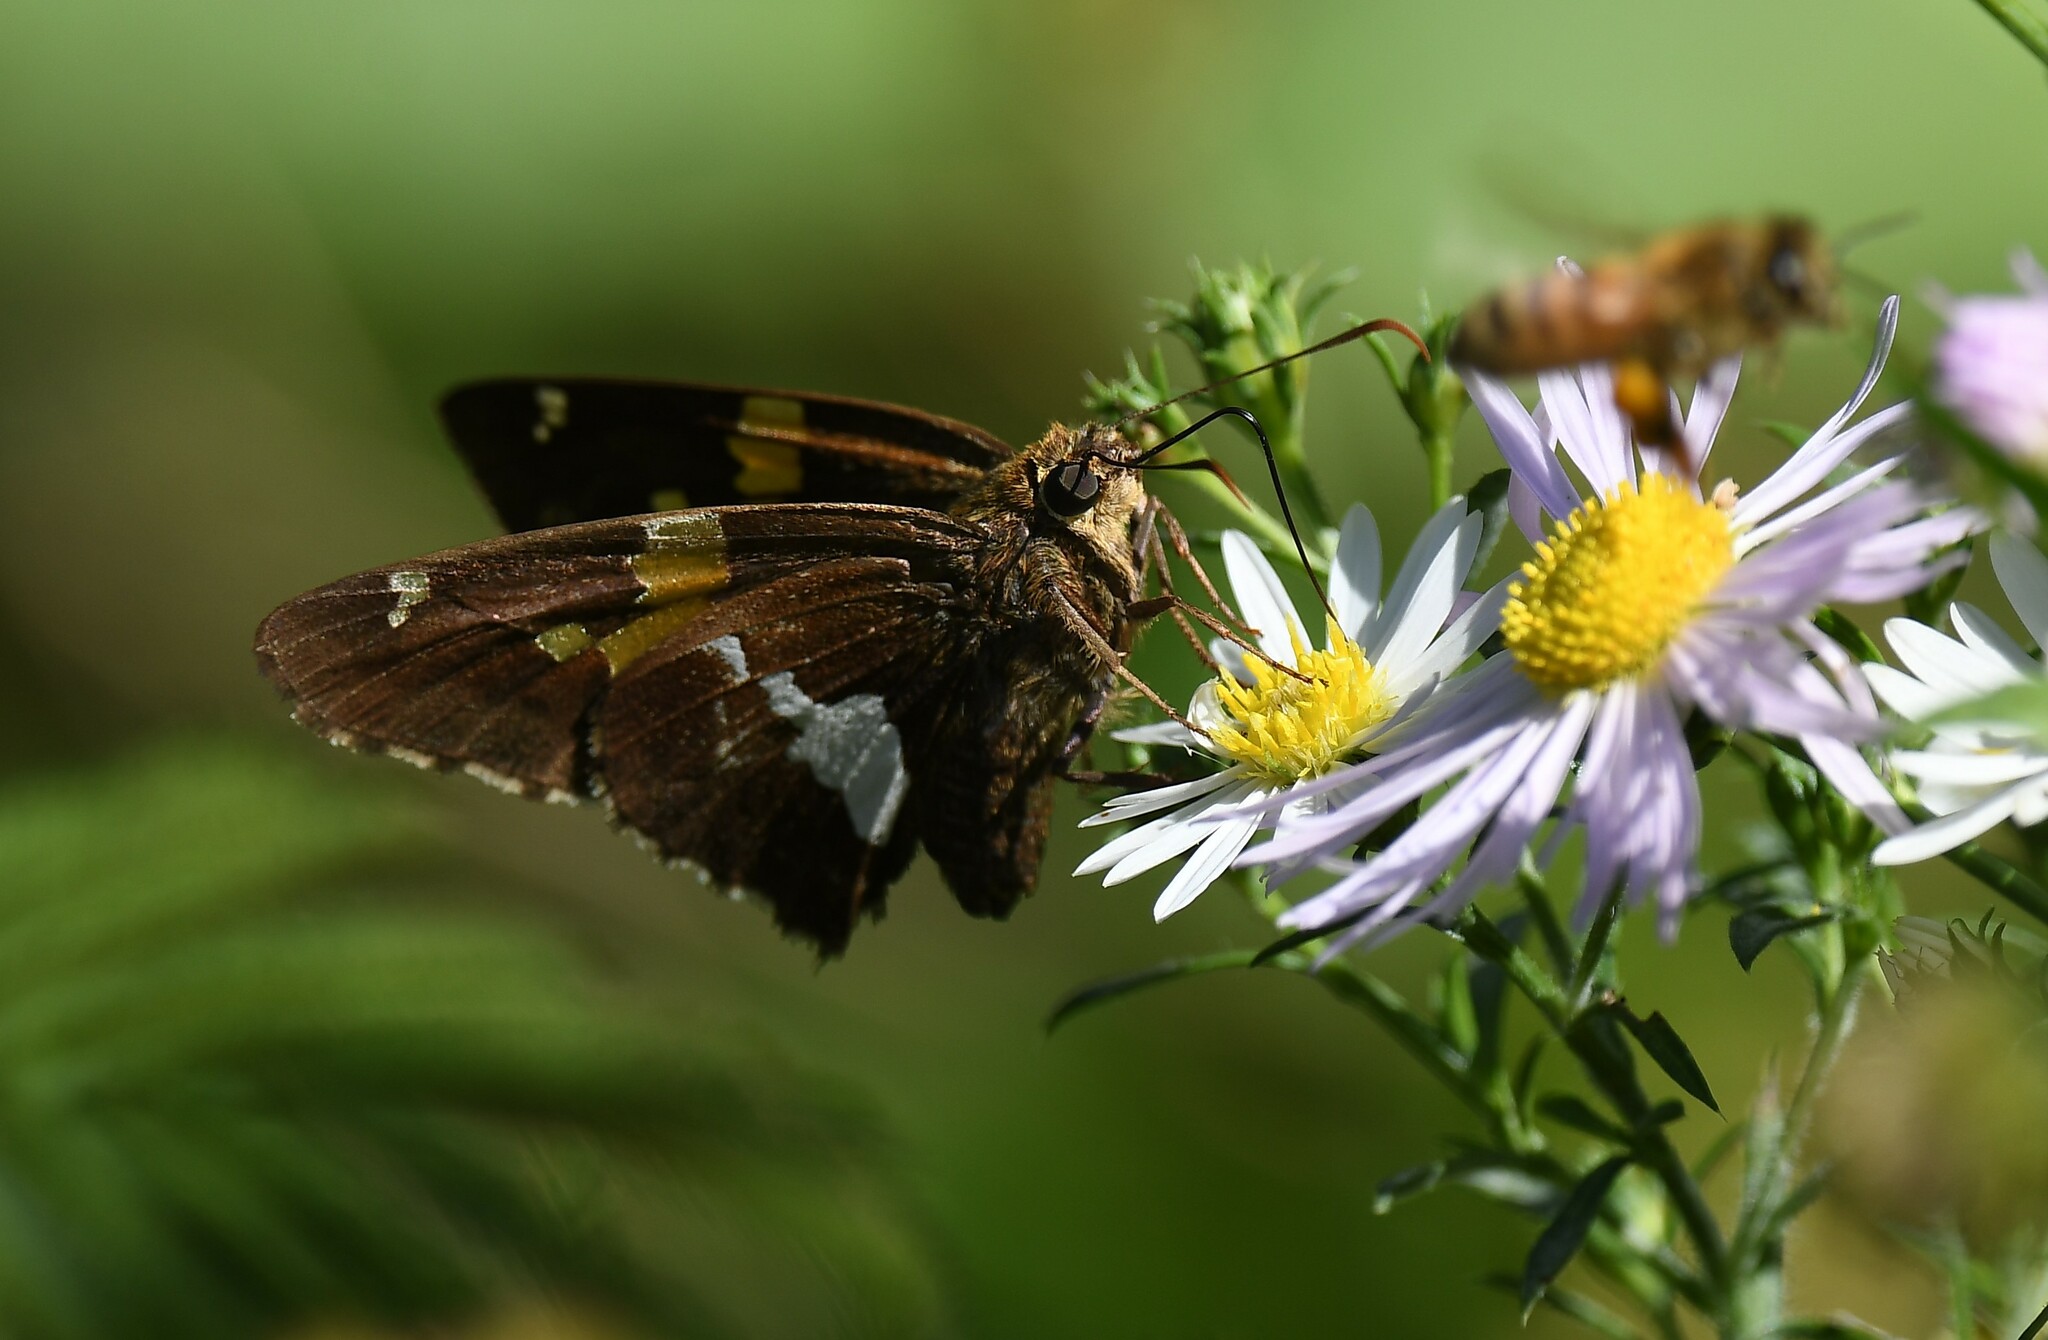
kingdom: Animalia
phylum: Arthropoda
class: Insecta
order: Lepidoptera
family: Hesperiidae
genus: Epargyreus
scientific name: Epargyreus clarus
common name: Silver-spotted skipper
